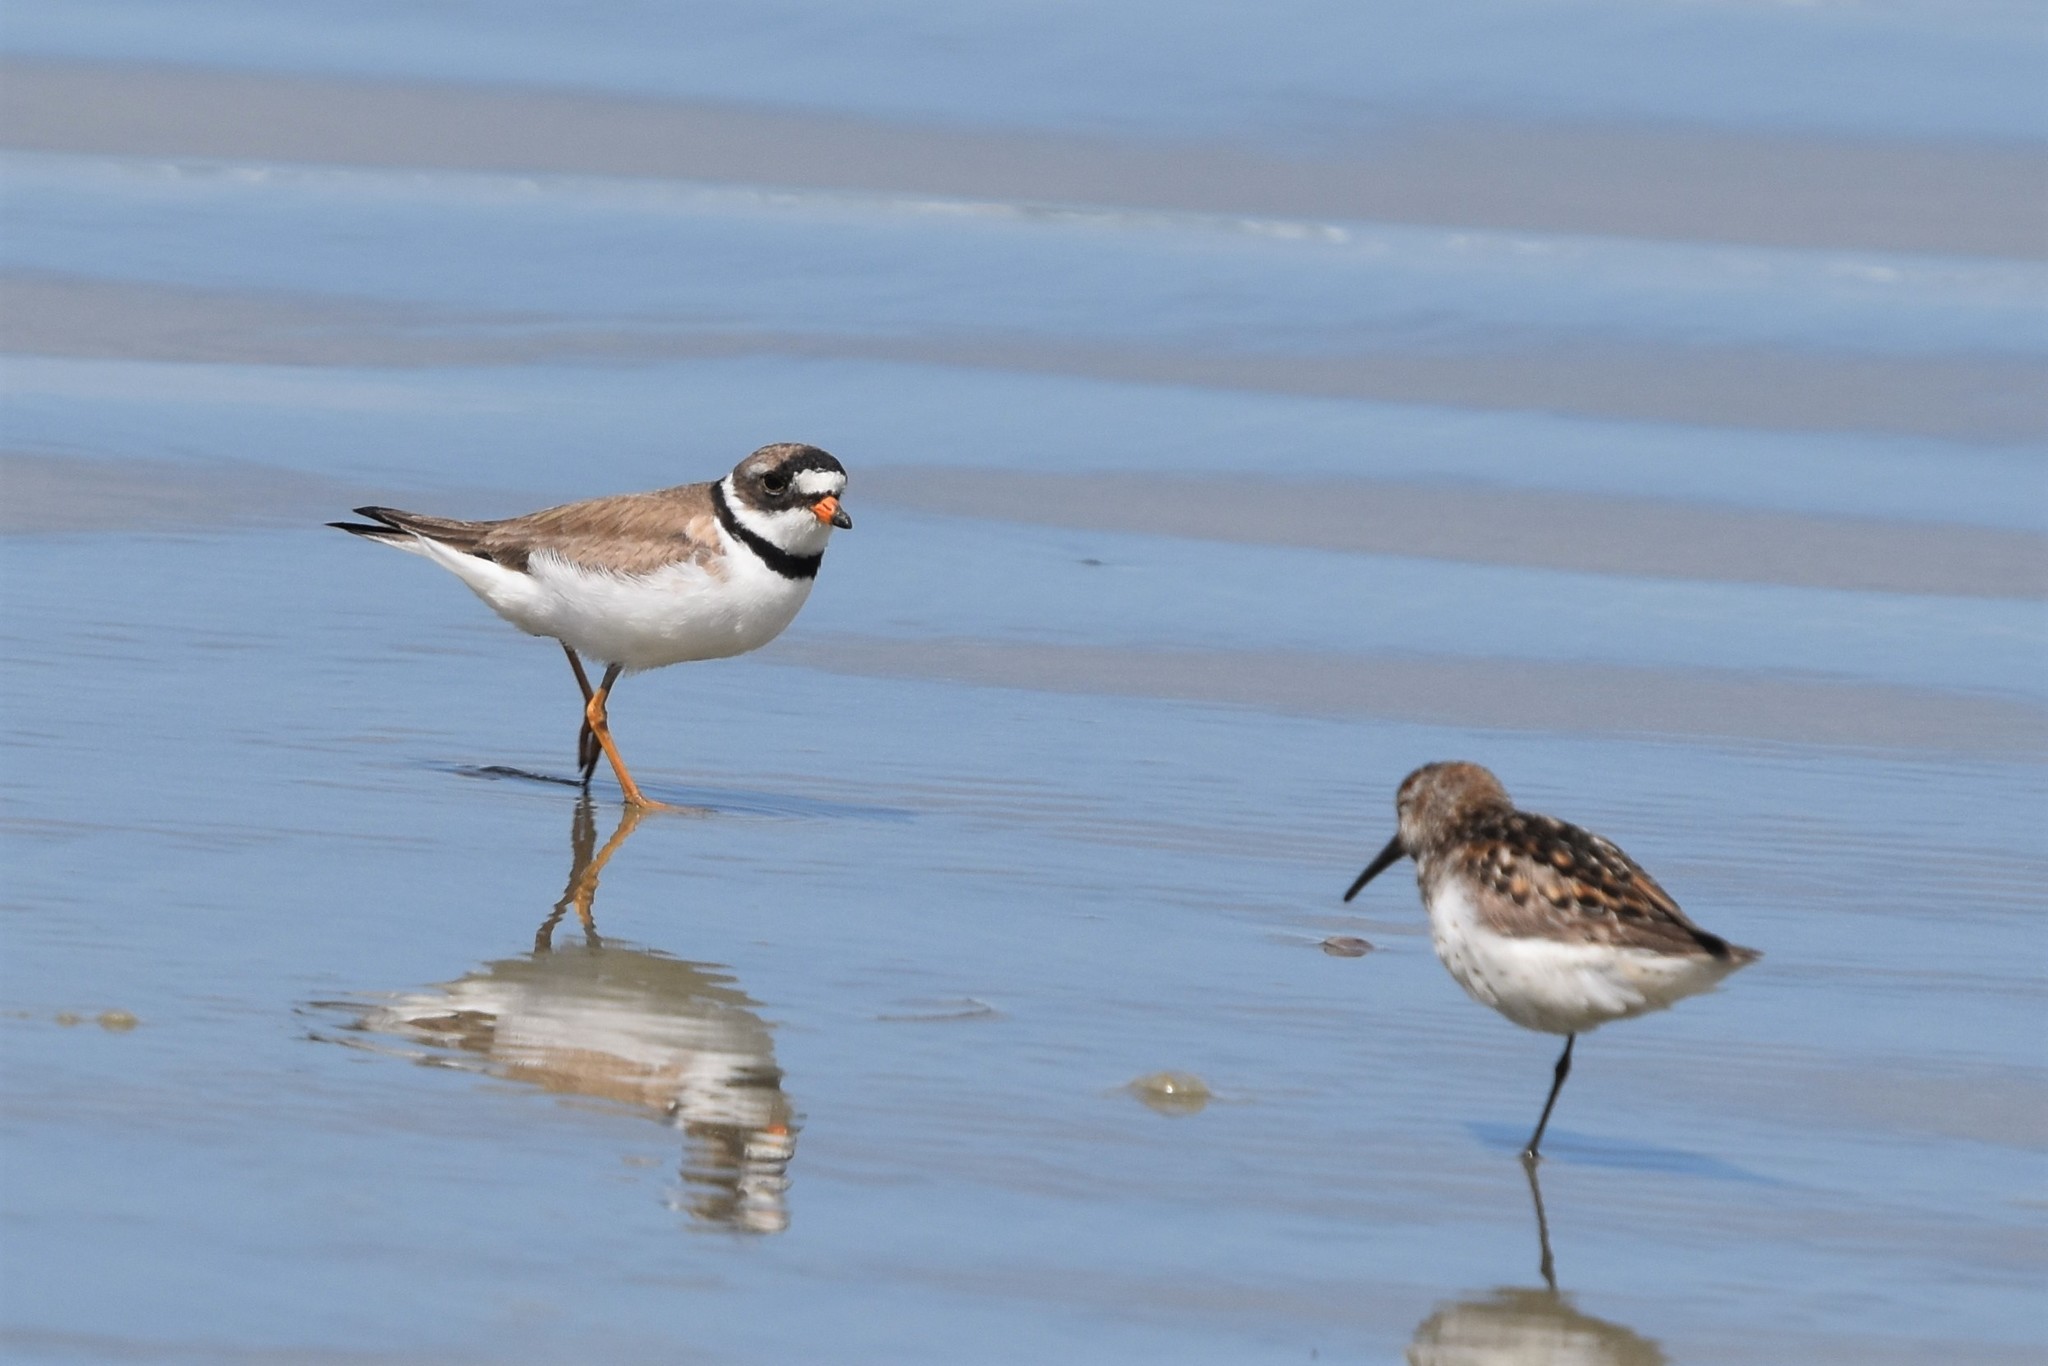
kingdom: Animalia
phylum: Chordata
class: Aves
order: Charadriiformes
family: Charadriidae
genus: Charadrius
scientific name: Charadrius semipalmatus
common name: Semipalmated plover
